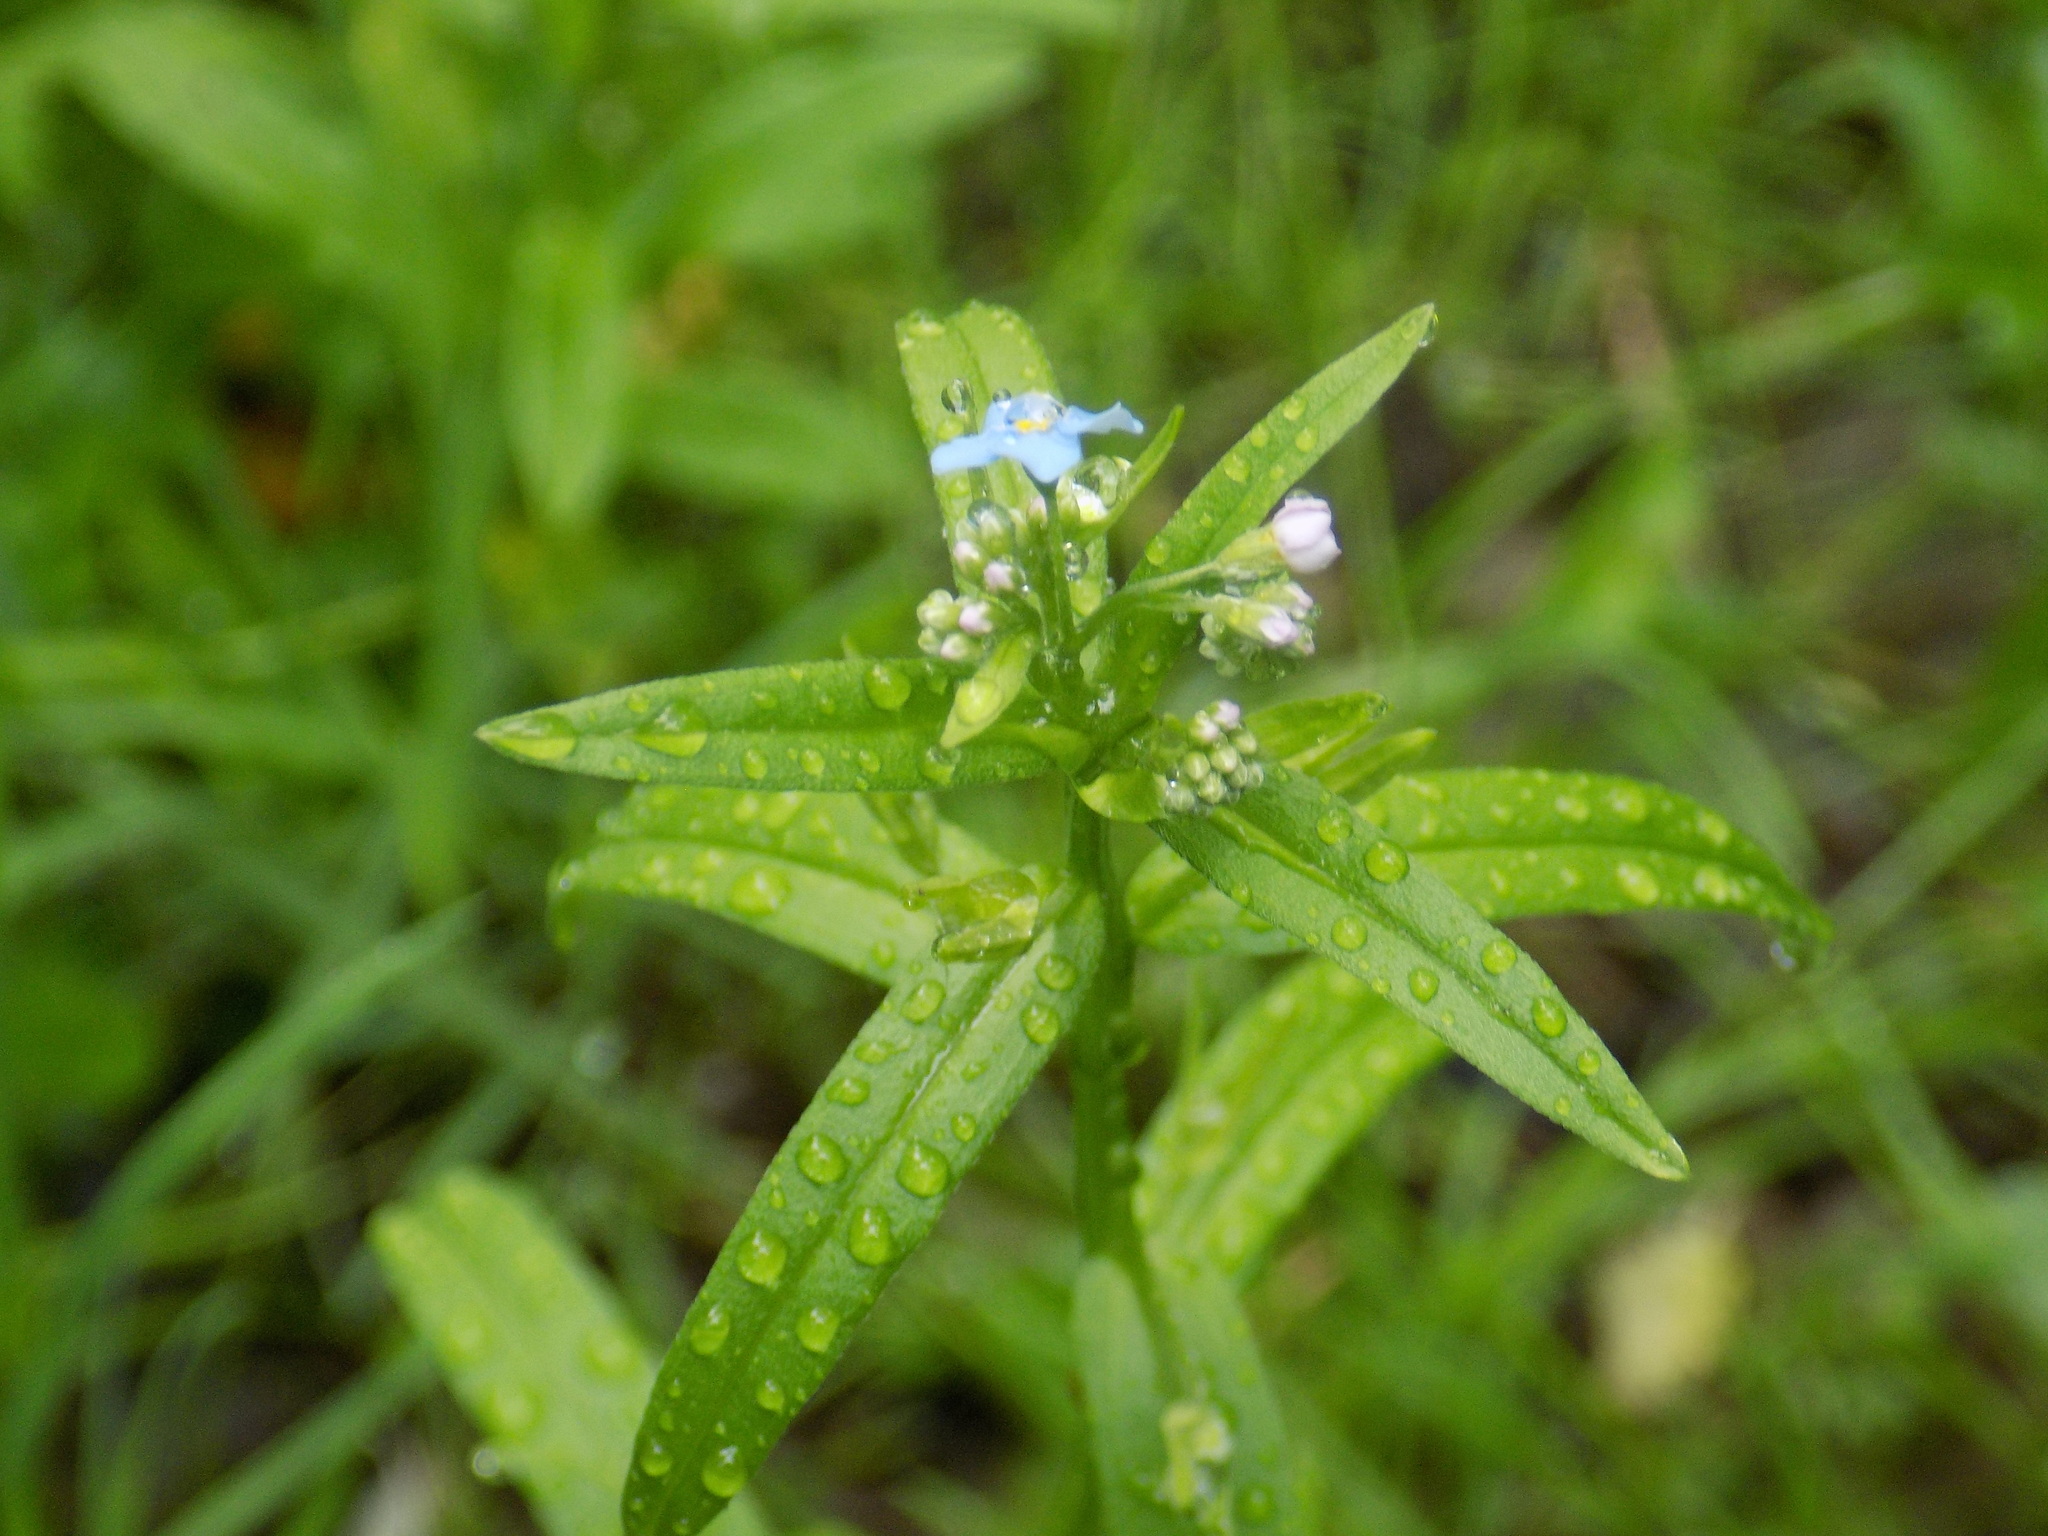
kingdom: Plantae
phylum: Tracheophyta
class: Magnoliopsida
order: Boraginales
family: Boraginaceae
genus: Myosotis
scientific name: Myosotis scorpioides
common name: Water forget-me-not
